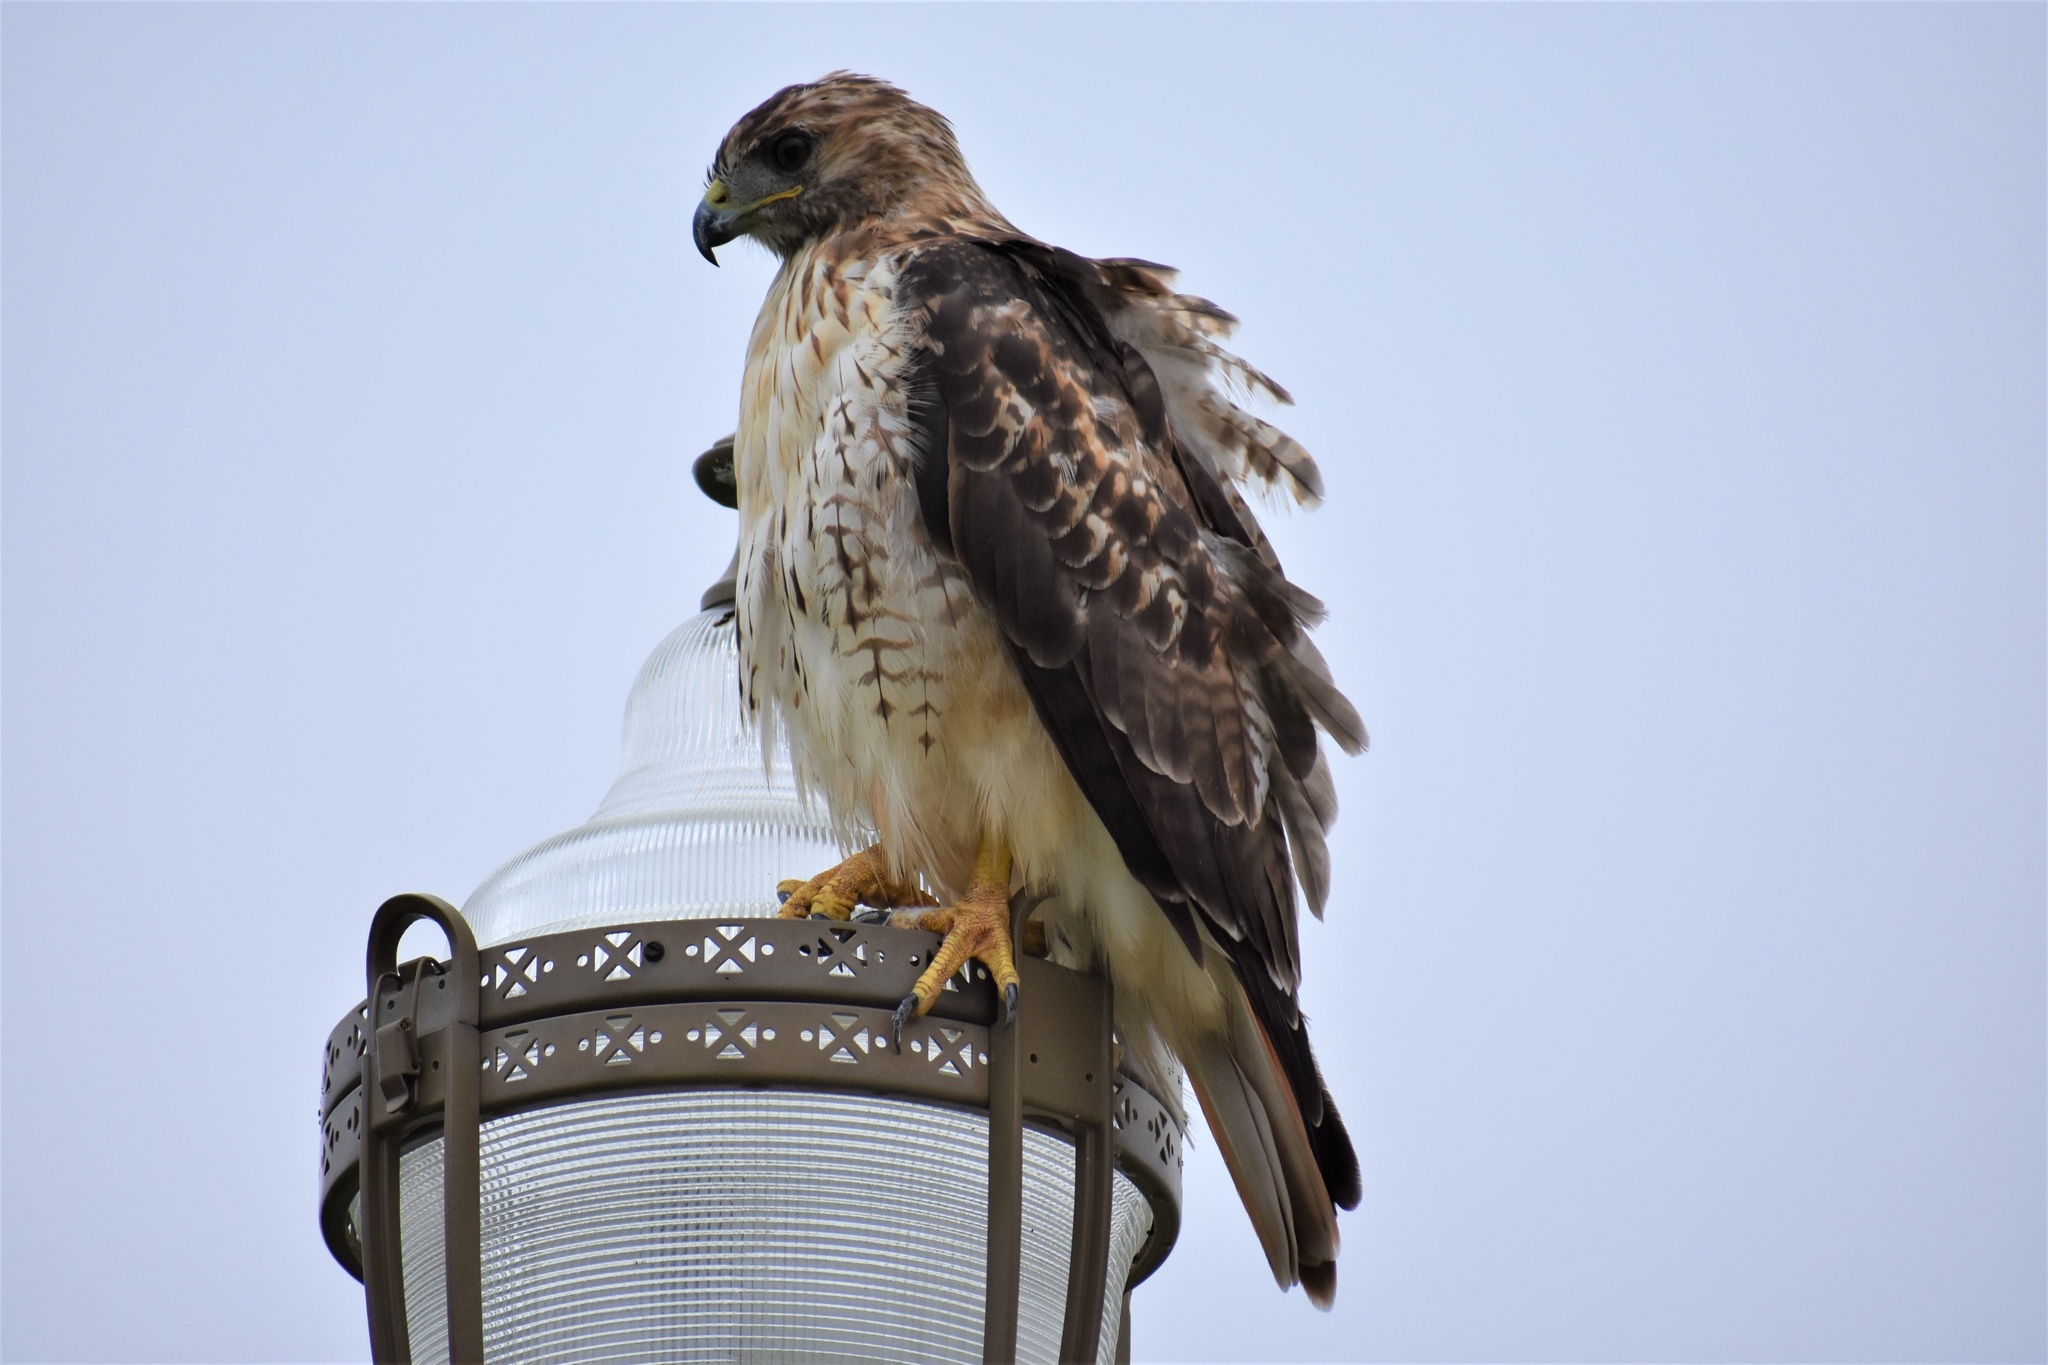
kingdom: Animalia
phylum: Chordata
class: Aves
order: Accipitriformes
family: Accipitridae
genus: Buteo
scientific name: Buteo jamaicensis
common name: Red-tailed hawk
